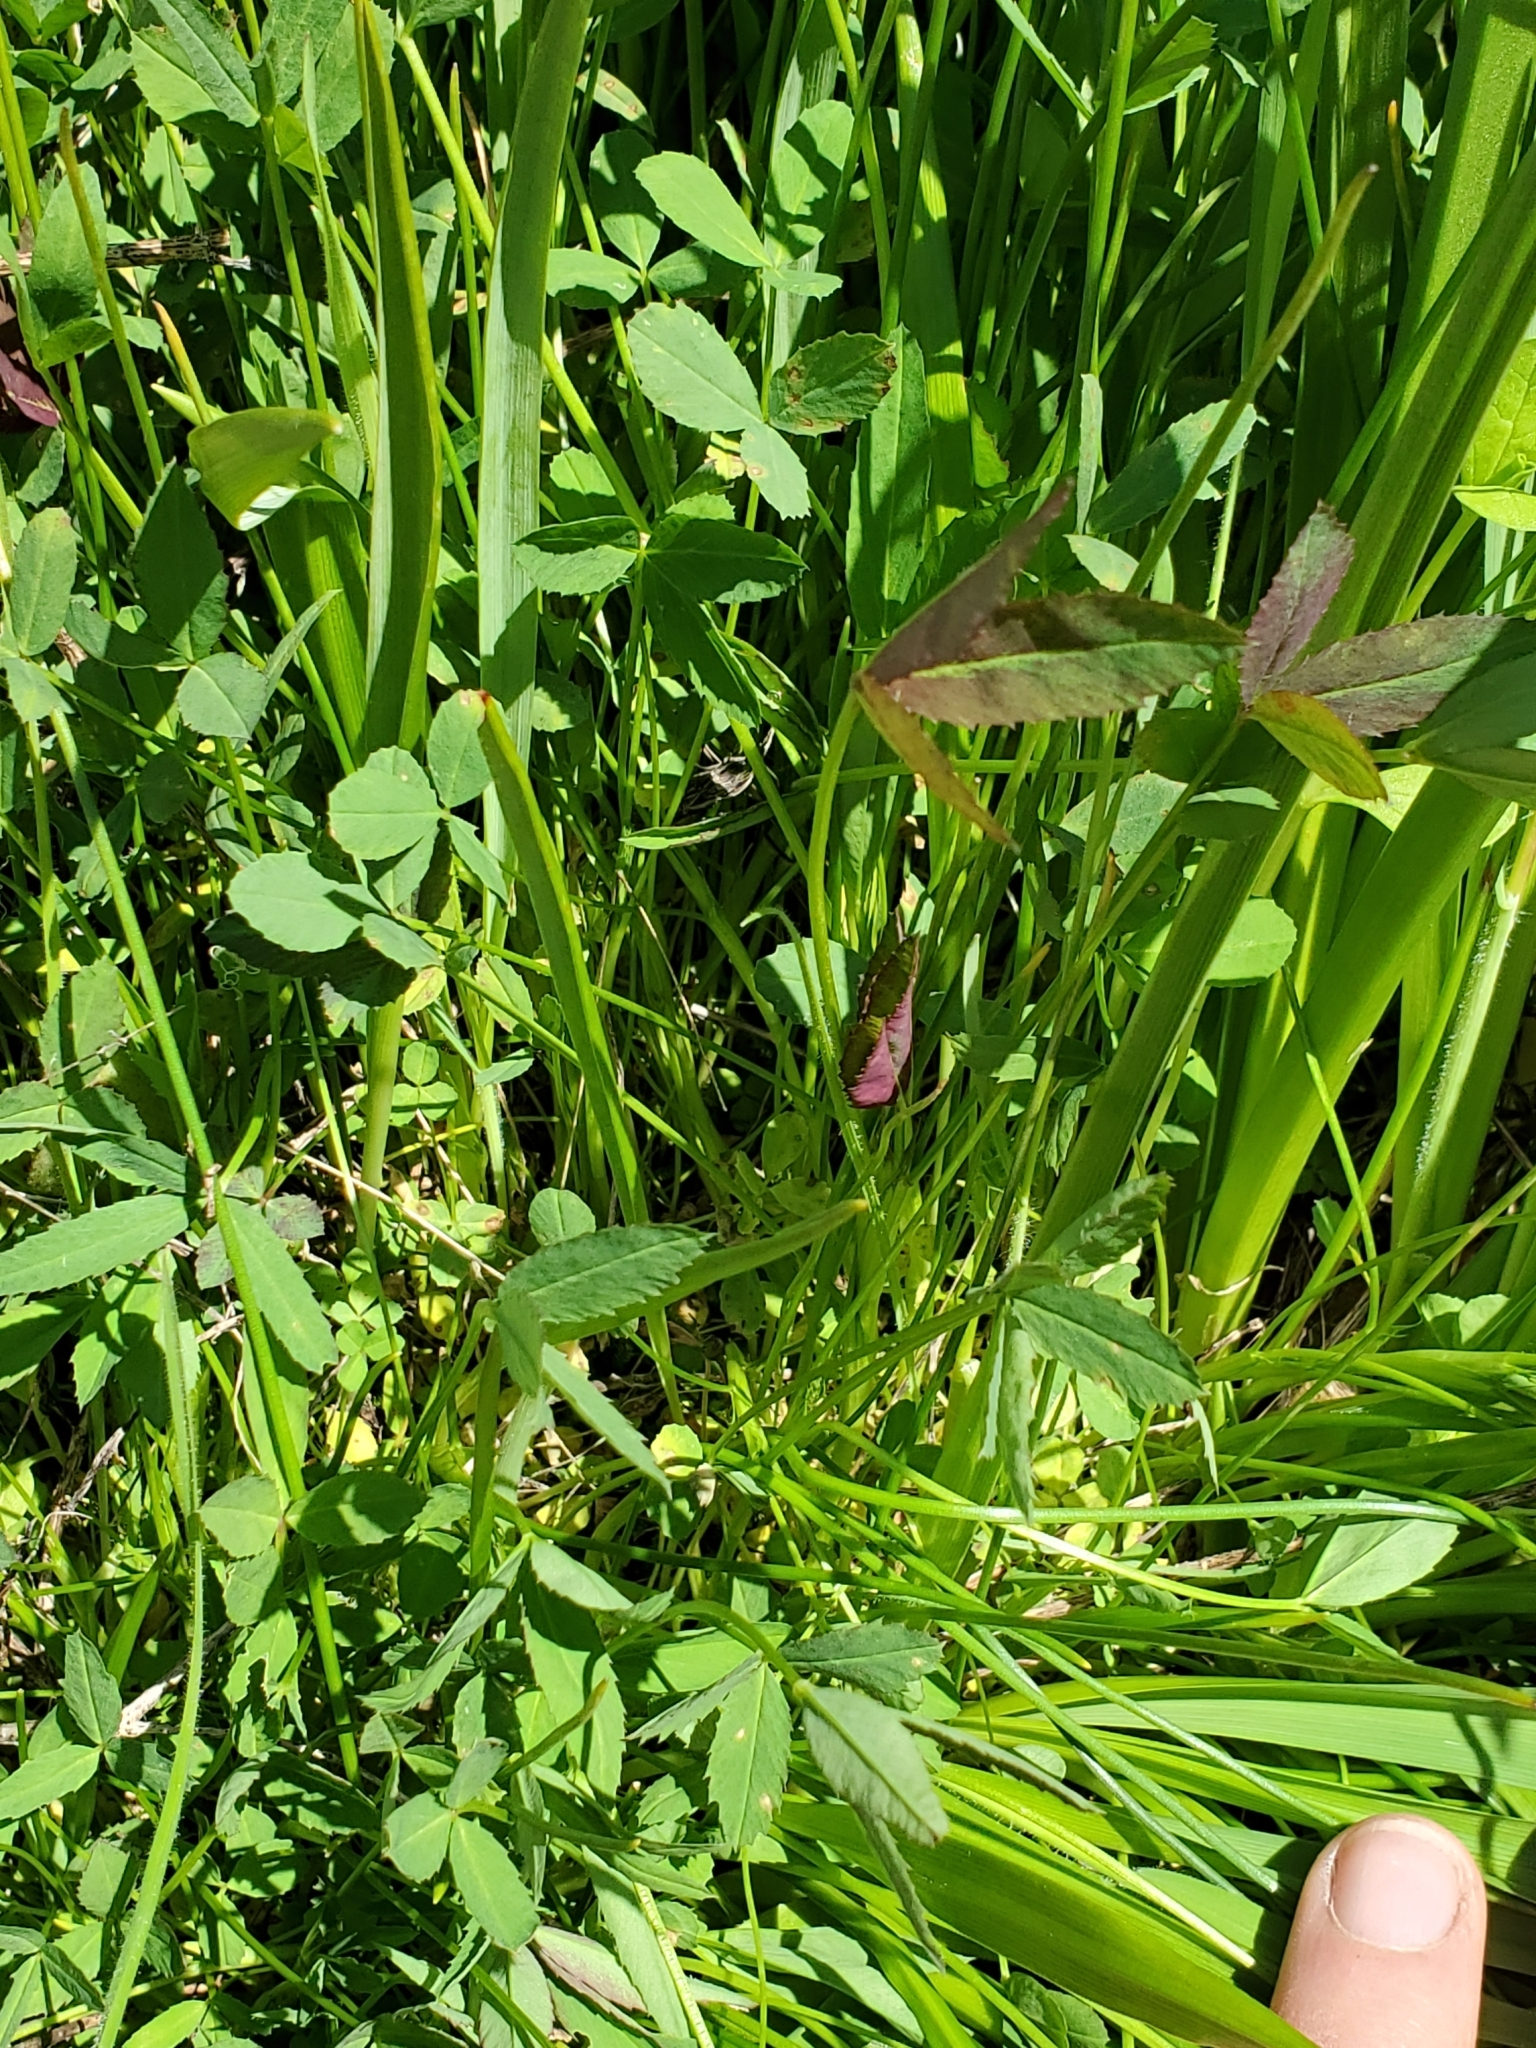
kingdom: Plantae
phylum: Tracheophyta
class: Magnoliopsida
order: Fabales
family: Fabaceae
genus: Trifolium
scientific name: Trifolium wormskioldii
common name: Springbank clover
